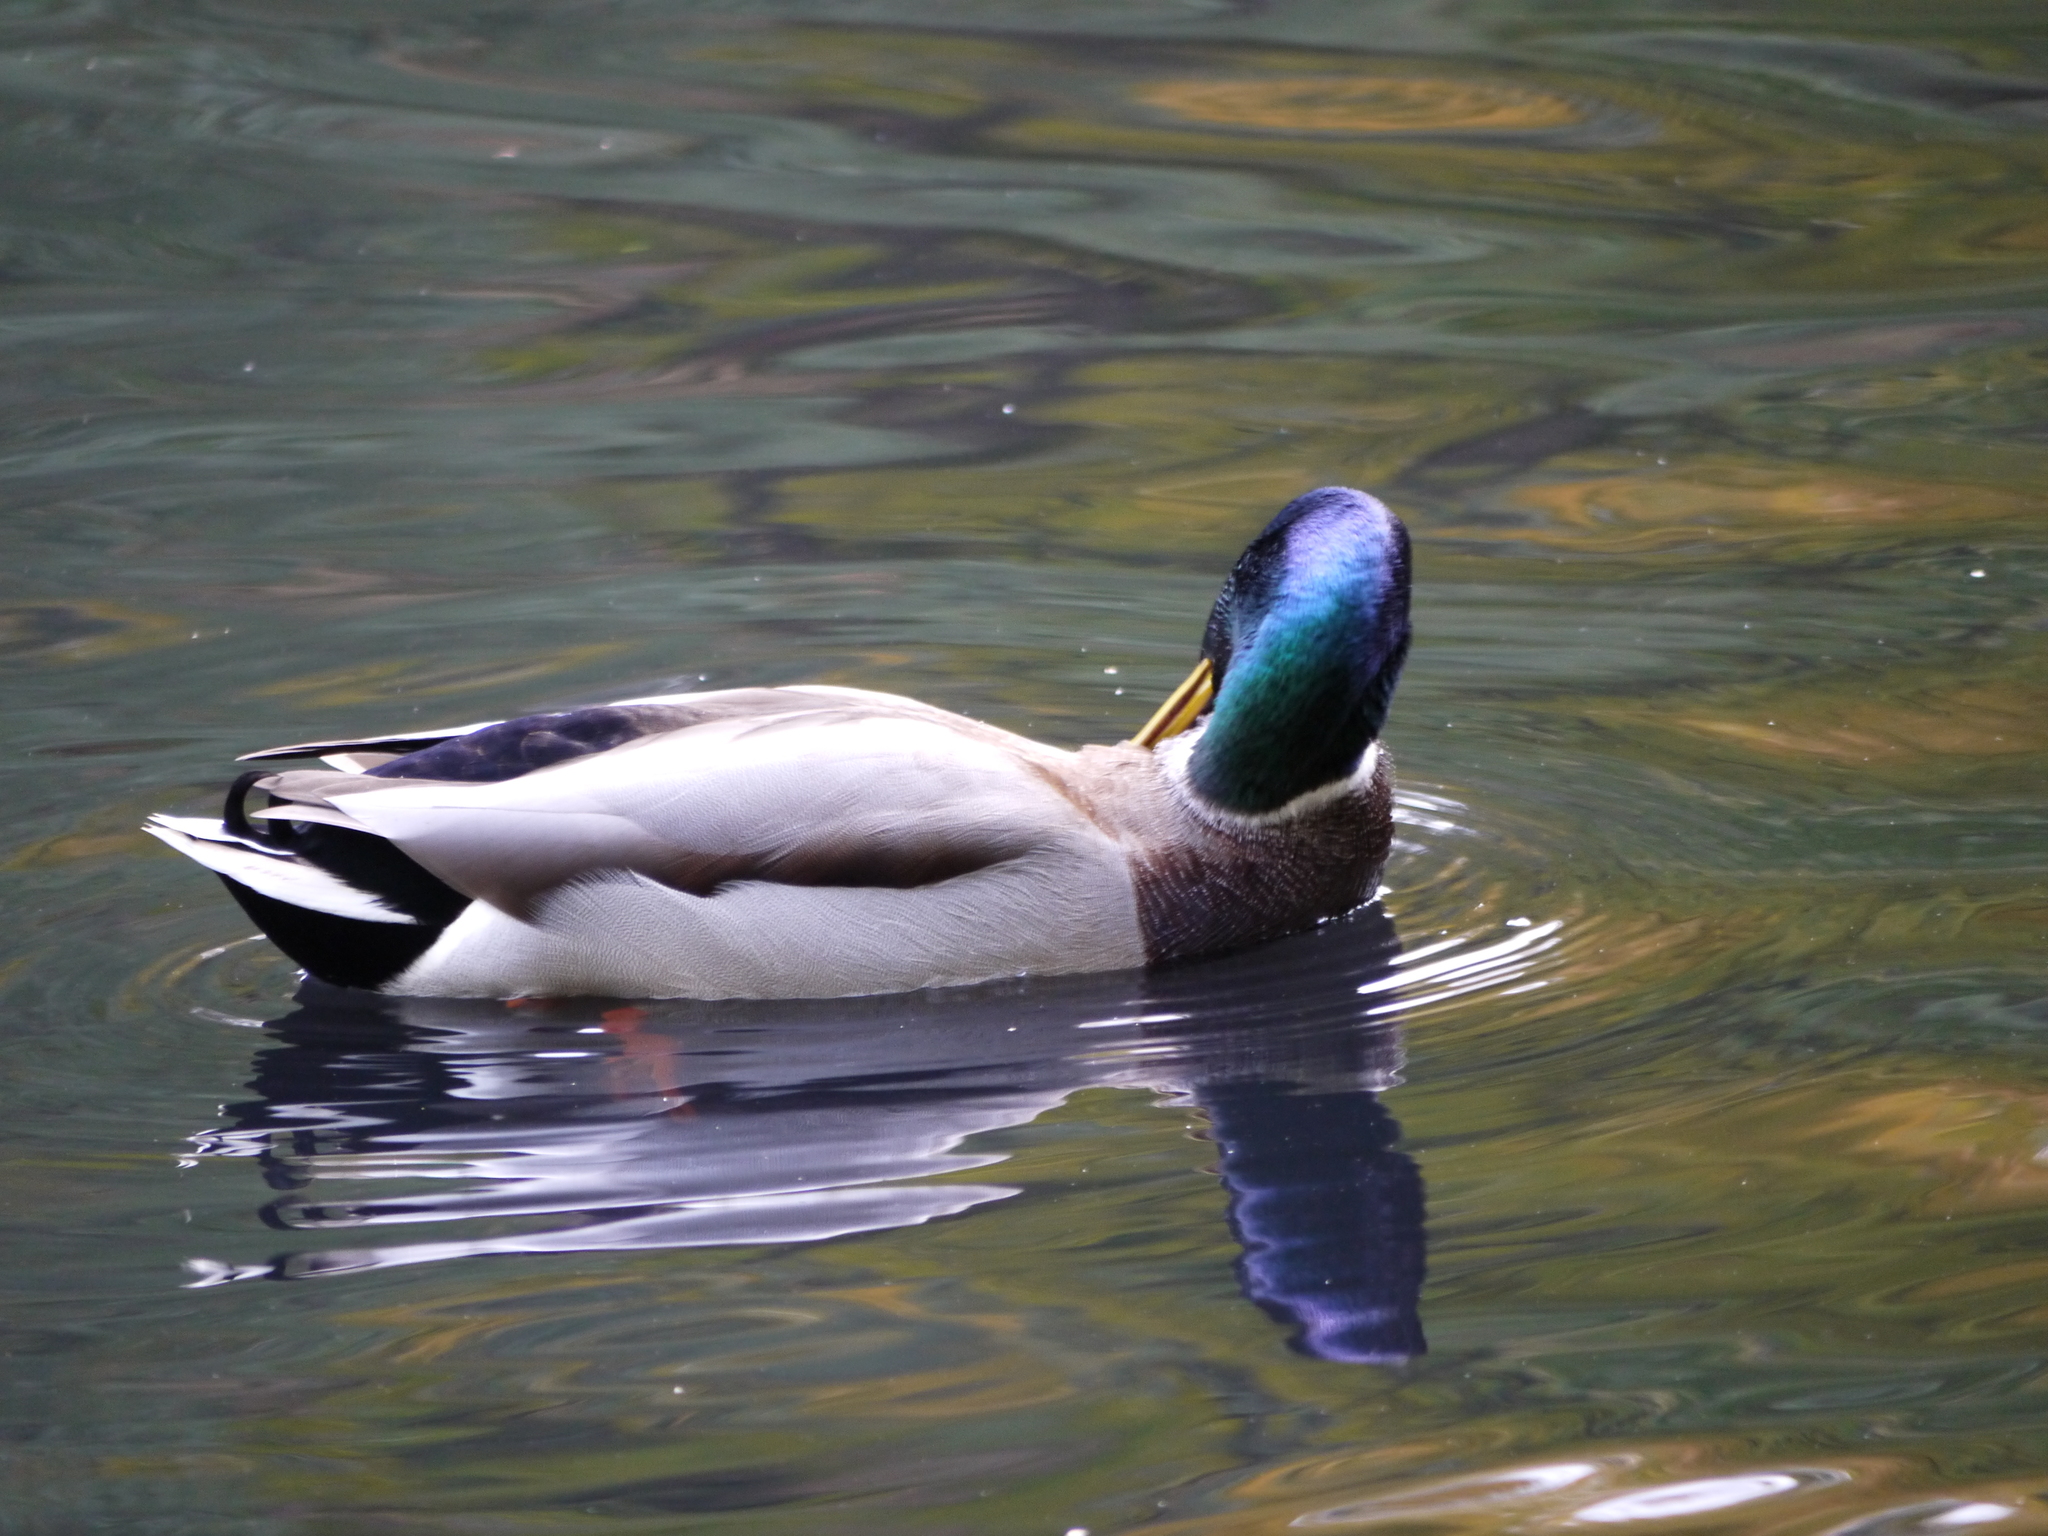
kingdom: Animalia
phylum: Chordata
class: Aves
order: Anseriformes
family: Anatidae
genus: Anas
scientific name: Anas platyrhynchos
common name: Mallard
